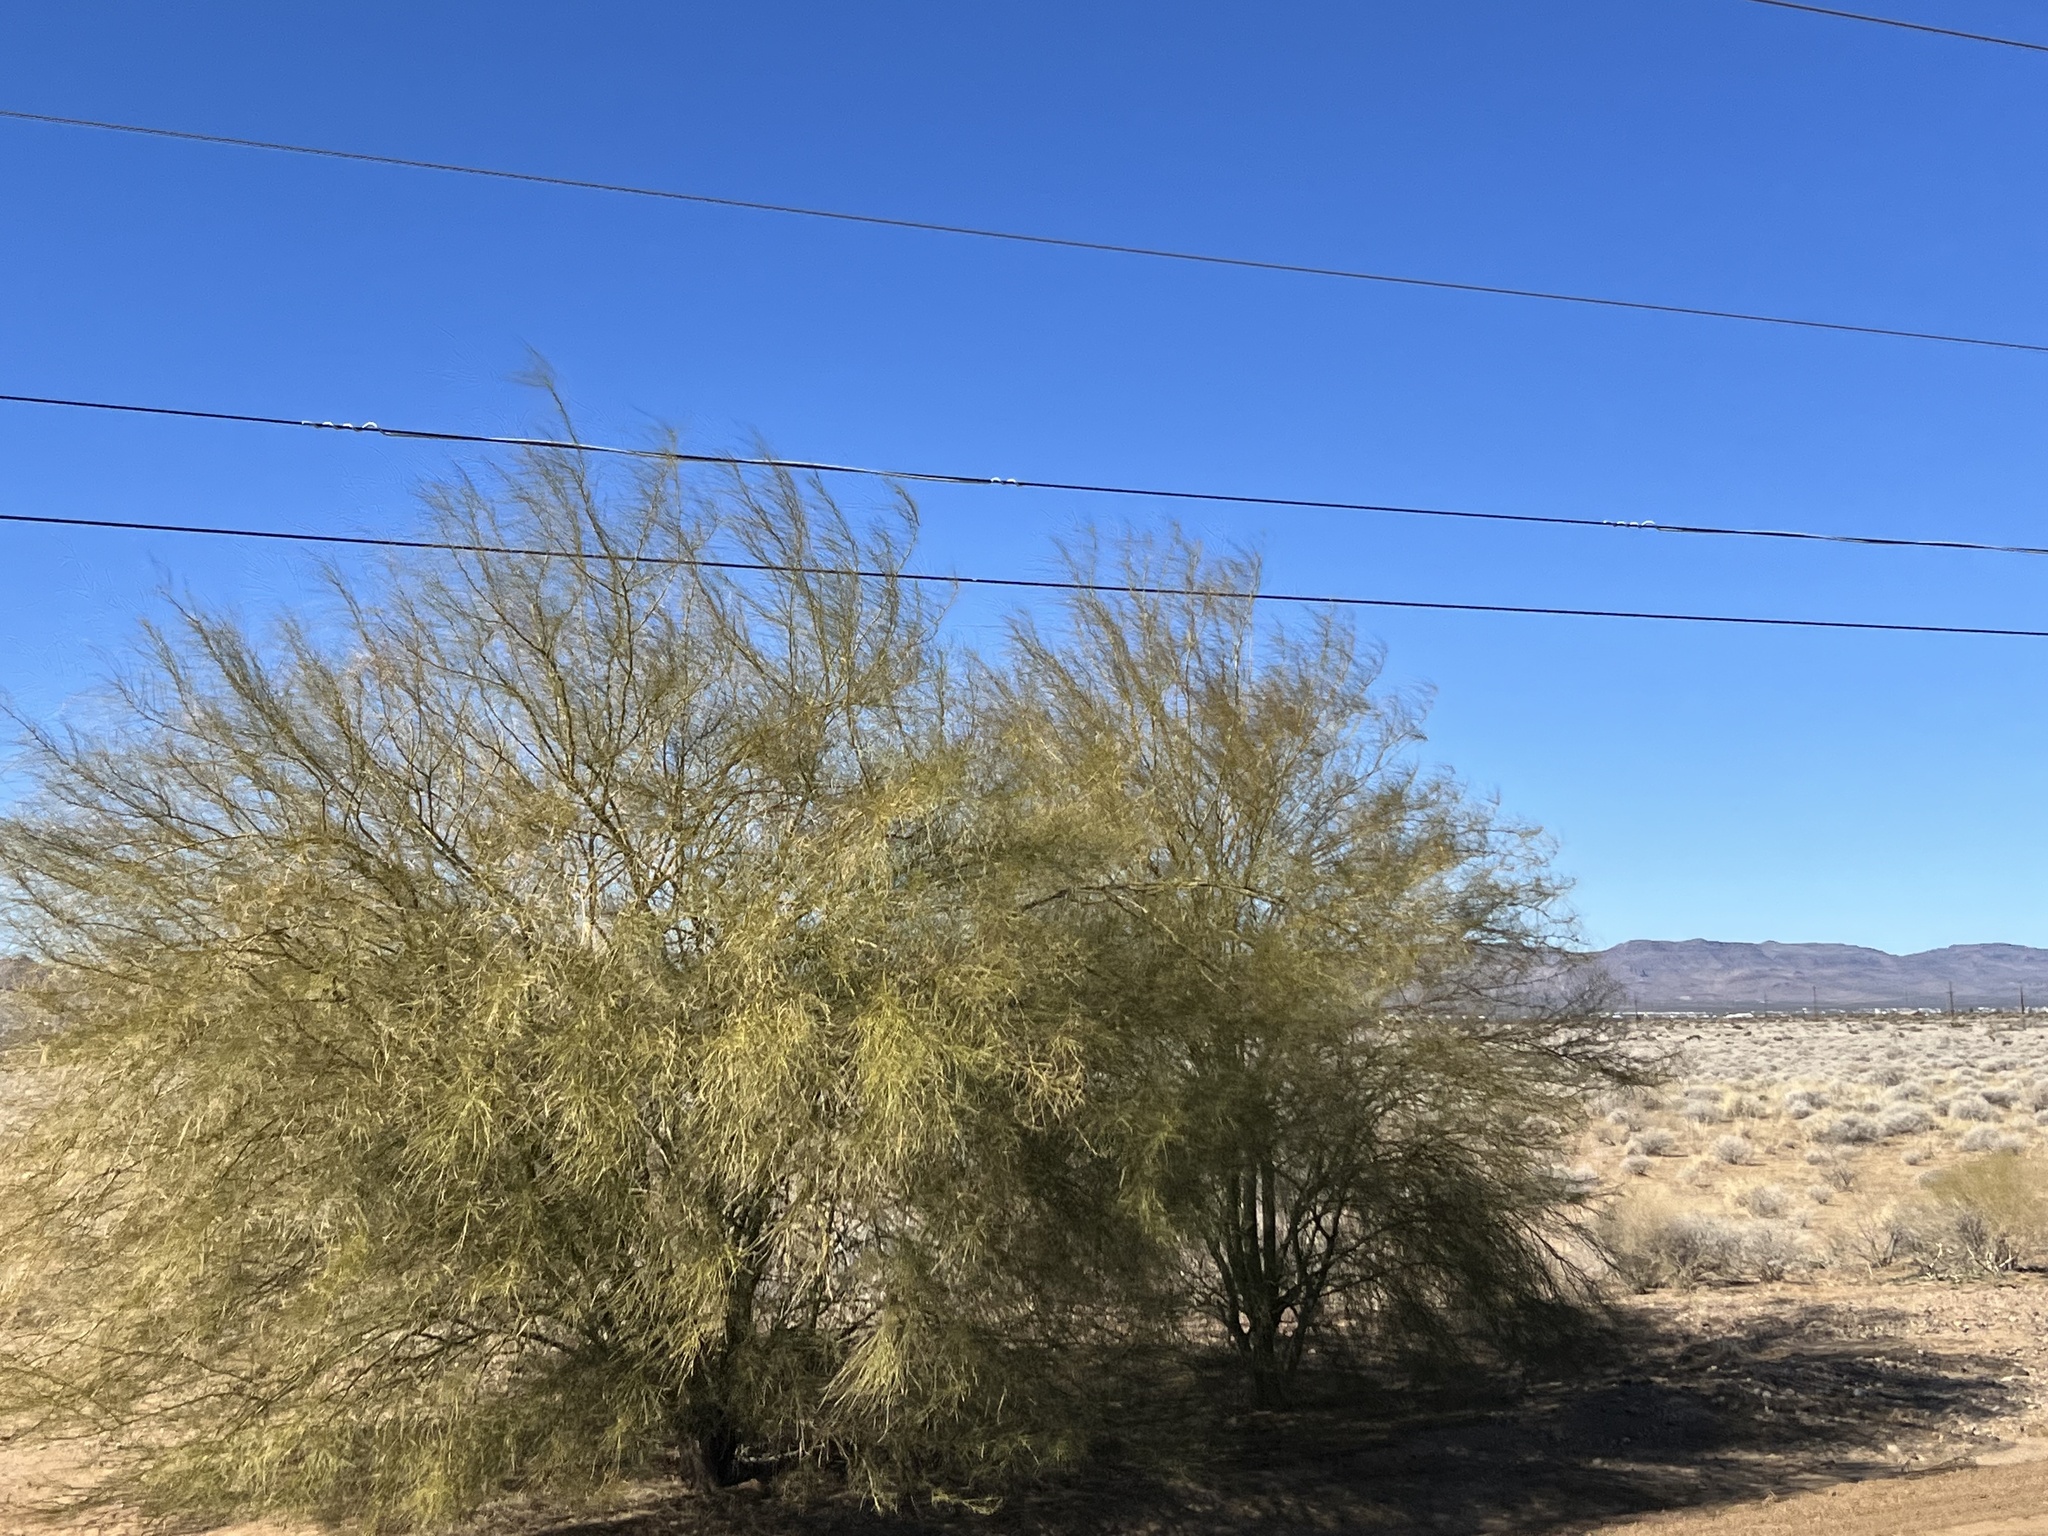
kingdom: Plantae
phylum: Tracheophyta
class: Magnoliopsida
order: Fabales
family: Fabaceae
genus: Parkinsonia
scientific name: Parkinsonia aculeata
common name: Jerusalem thorn
